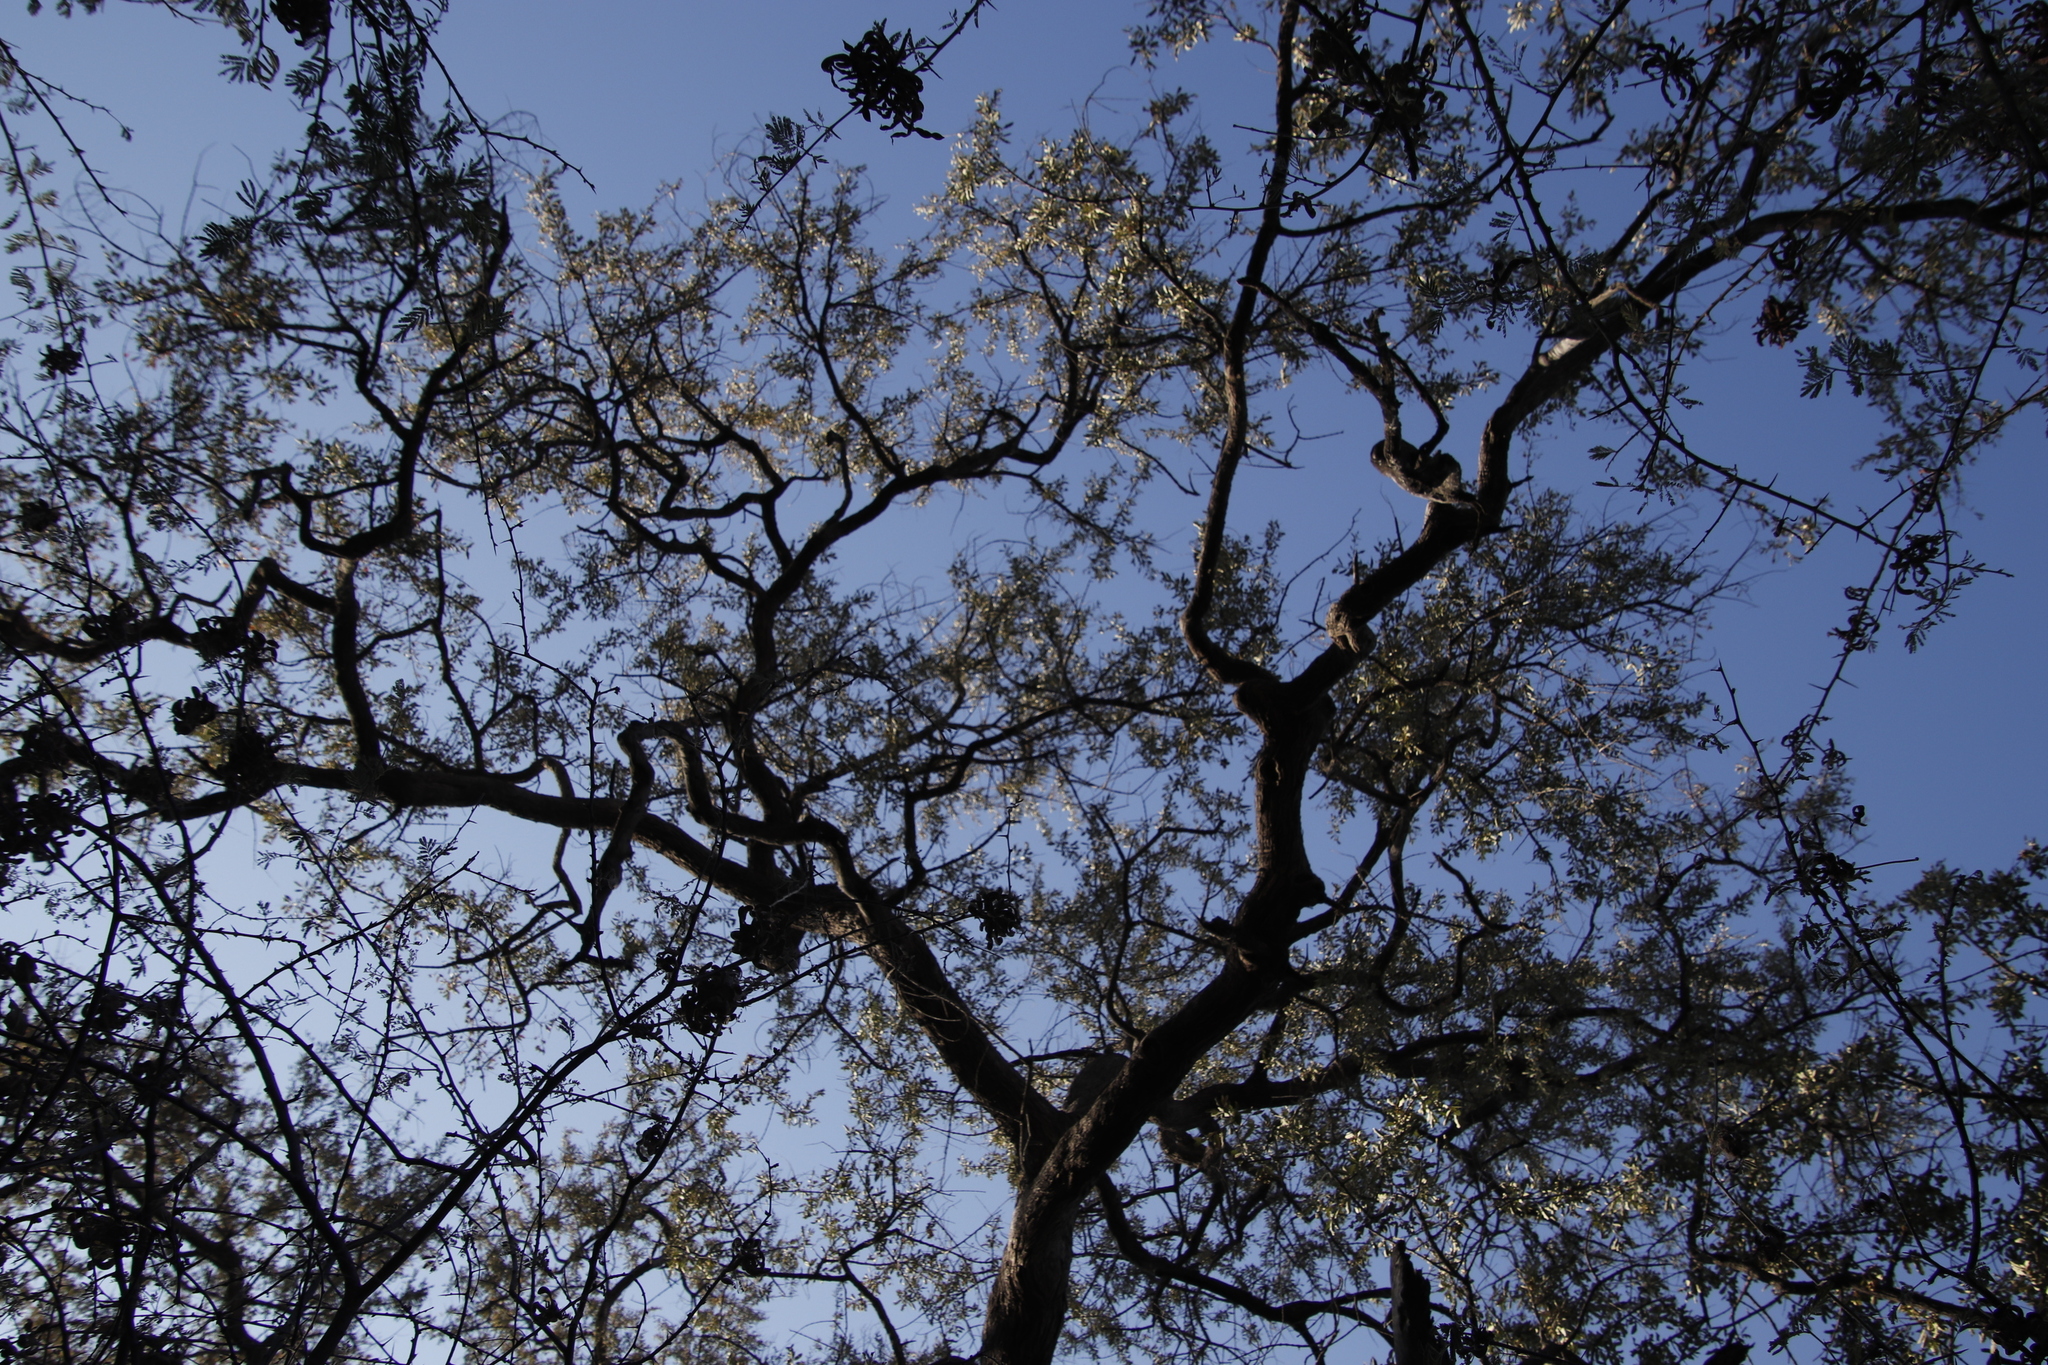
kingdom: Plantae
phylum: Tracheophyta
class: Magnoliopsida
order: Fabales
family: Fabaceae
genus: Dichrostachys
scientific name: Dichrostachys cinerea
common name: Sicklebush
